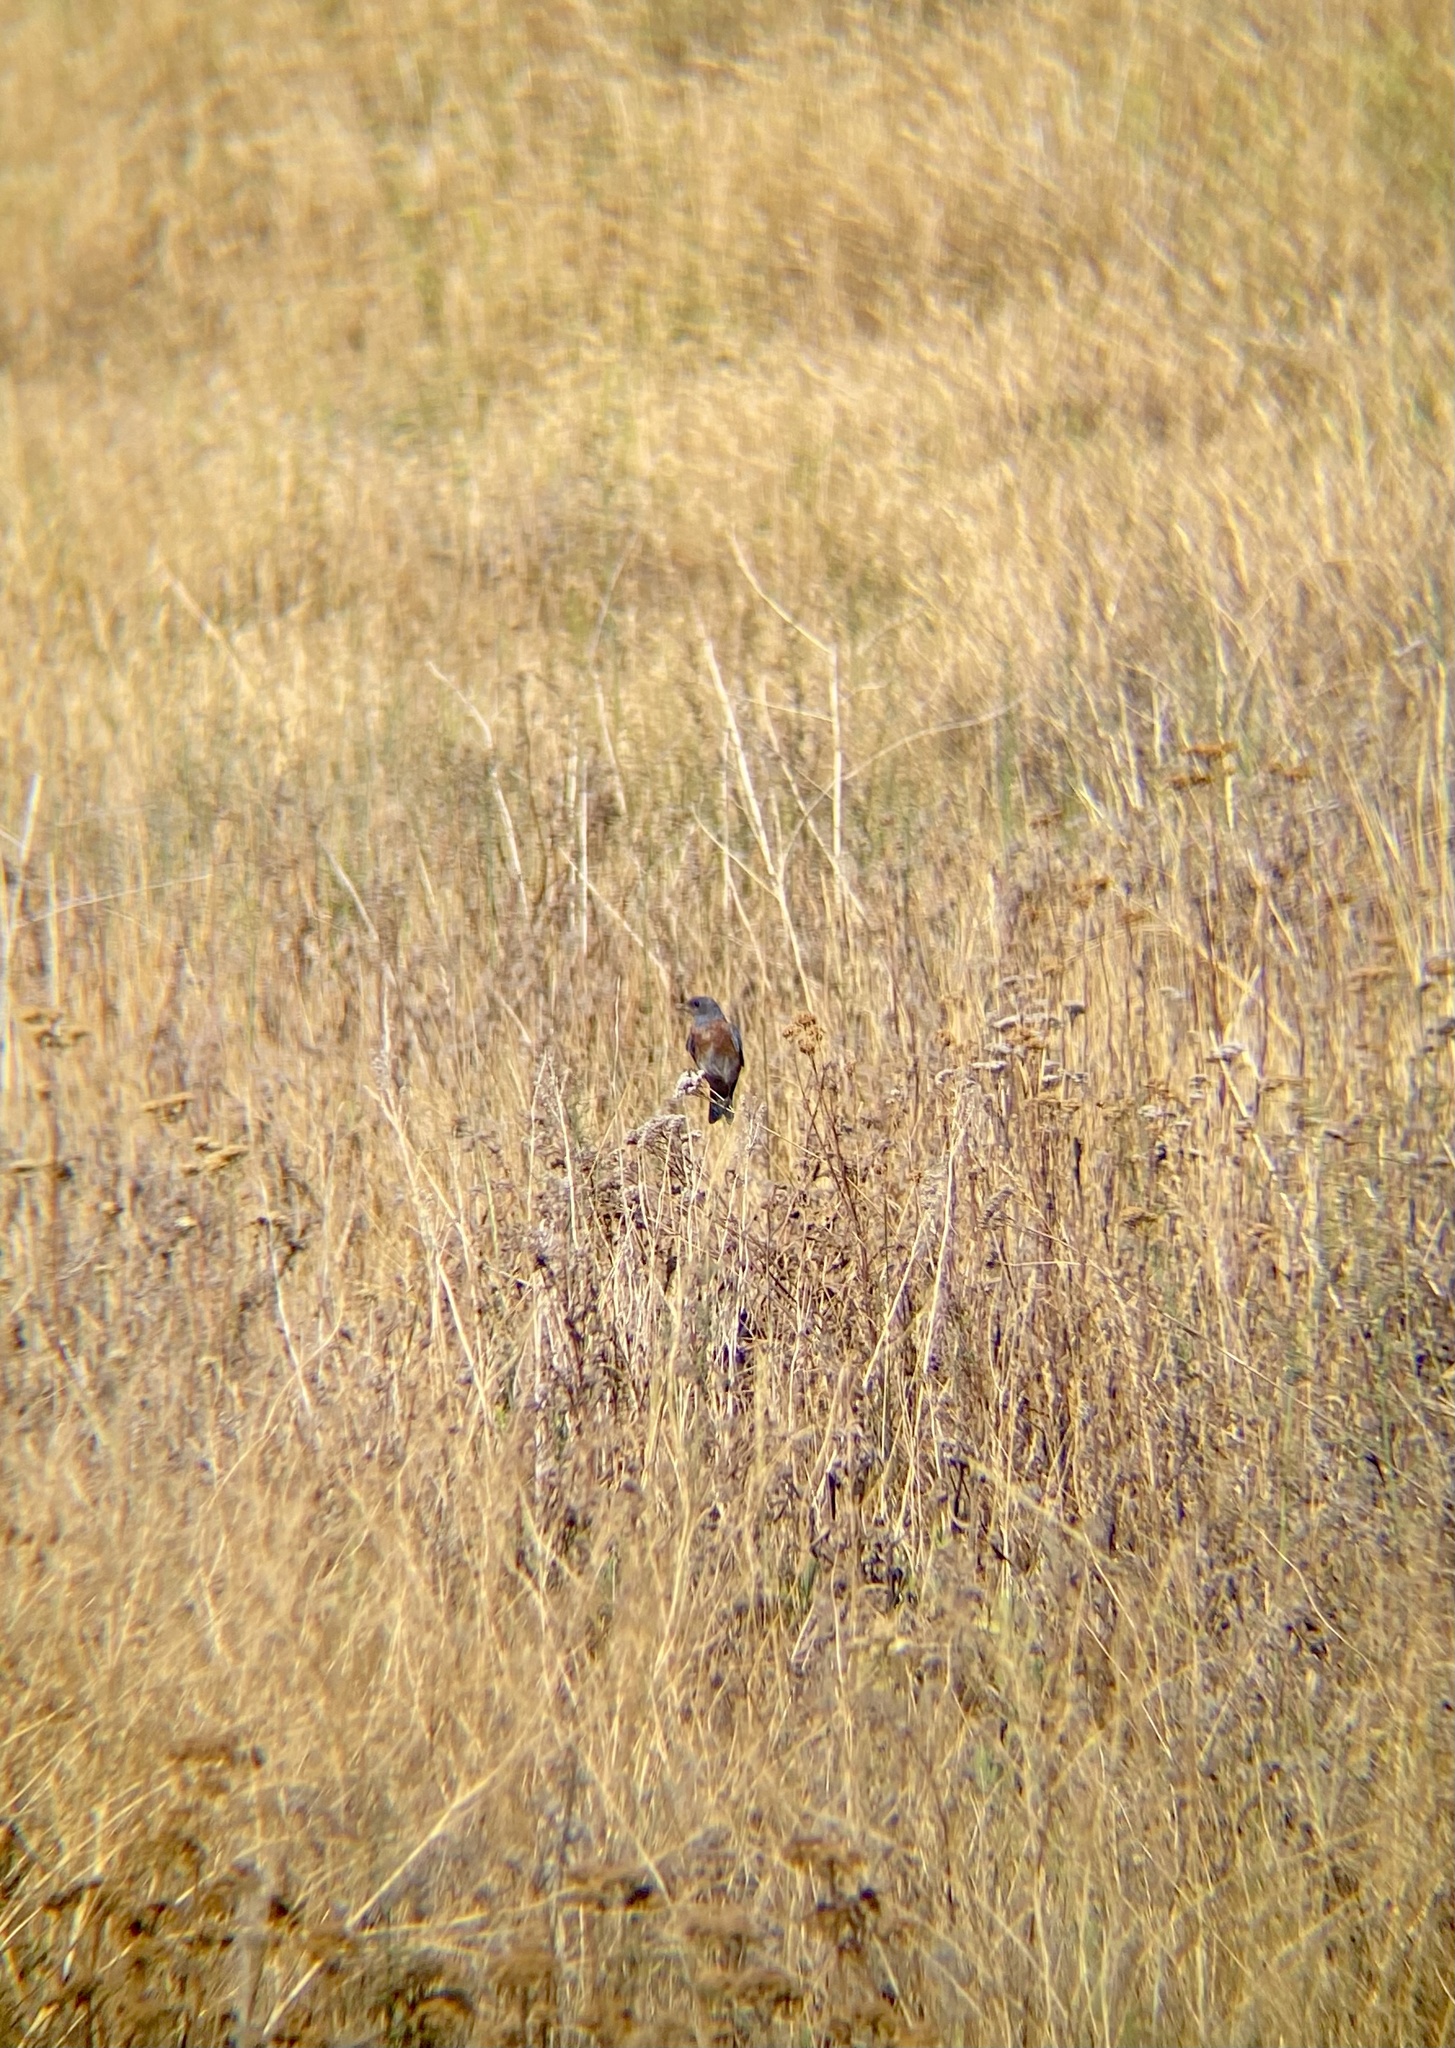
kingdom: Animalia
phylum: Chordata
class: Aves
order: Passeriformes
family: Turdidae
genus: Sialia
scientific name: Sialia mexicana
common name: Western bluebird
